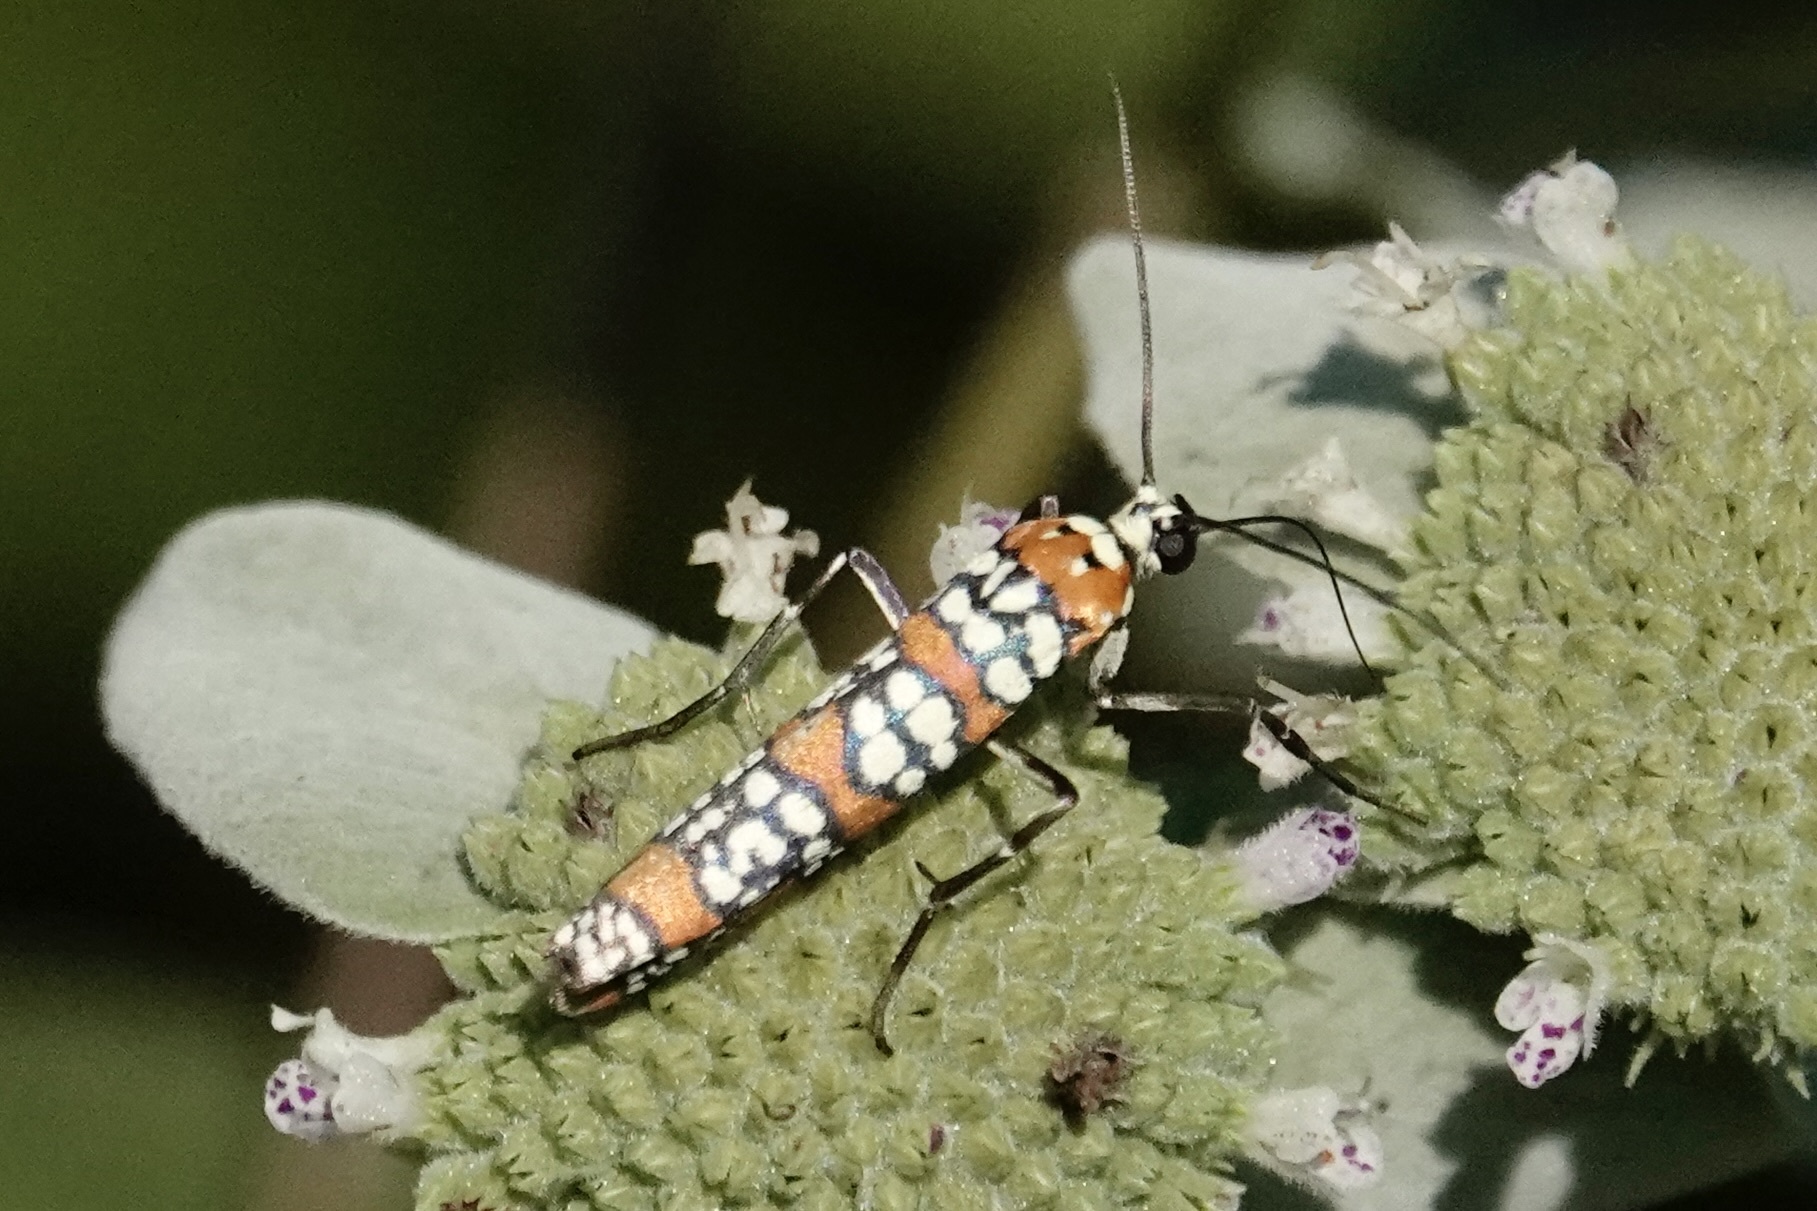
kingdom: Animalia
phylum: Arthropoda
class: Insecta
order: Lepidoptera
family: Attevidae
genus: Atteva
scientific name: Atteva punctella
